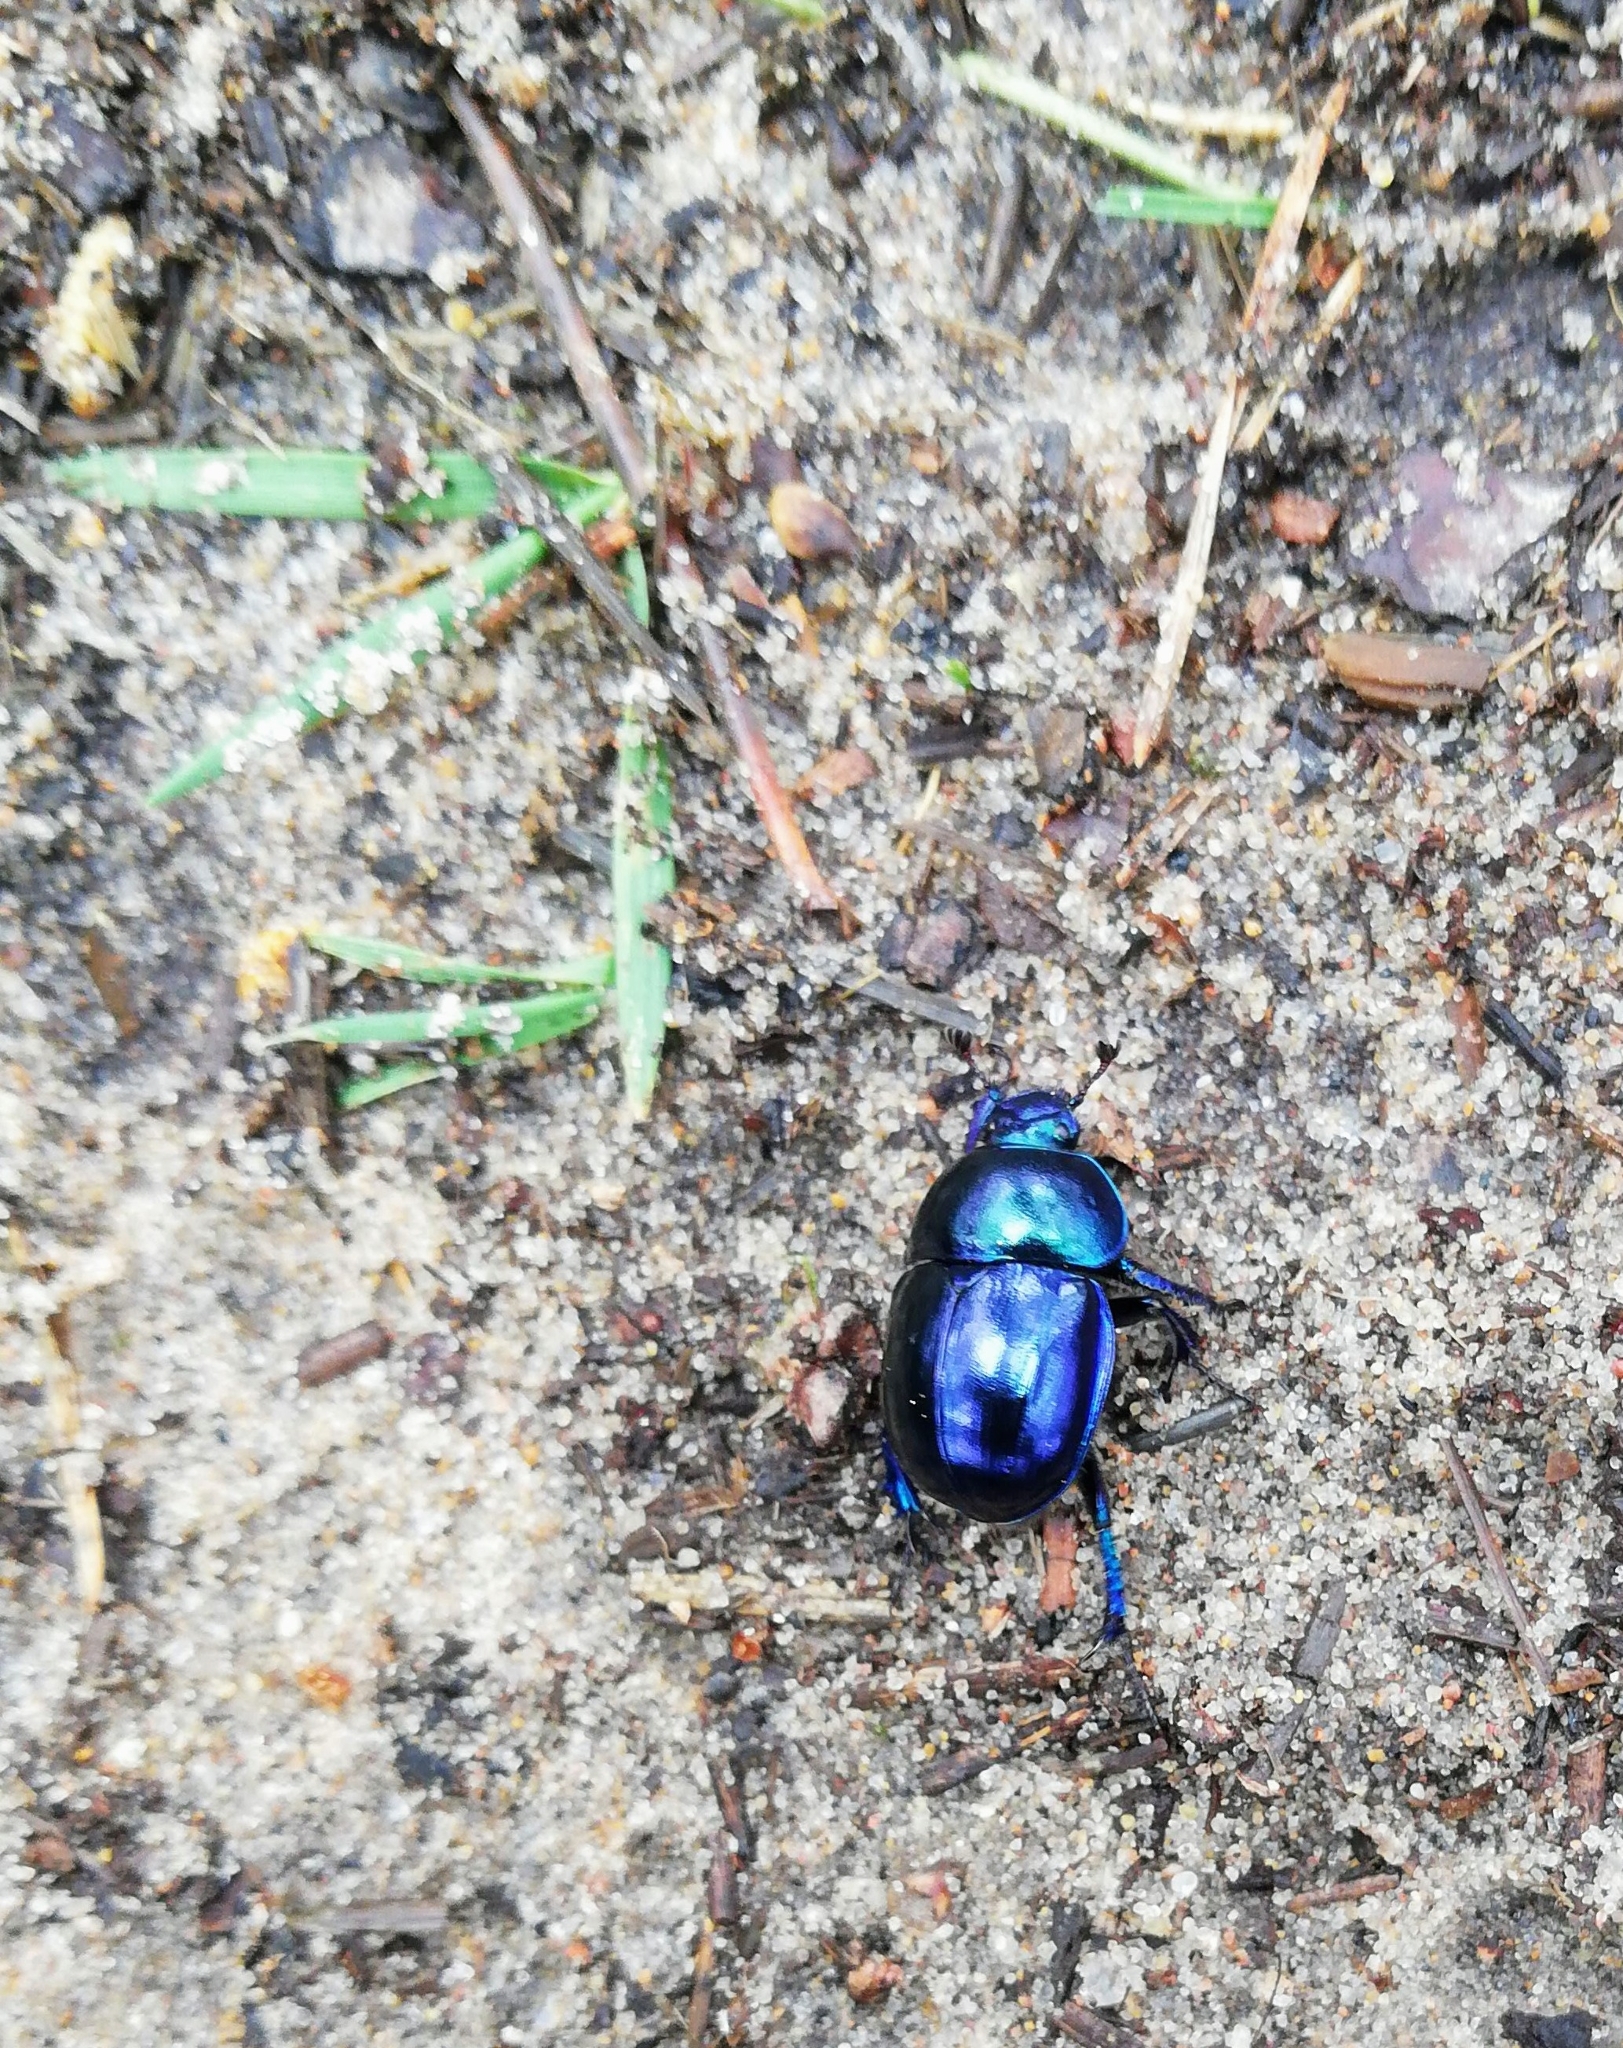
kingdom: Animalia
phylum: Arthropoda
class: Insecta
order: Coleoptera
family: Geotrupidae
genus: Trypocopris
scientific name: Trypocopris vernalis
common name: Spring dumbledor
